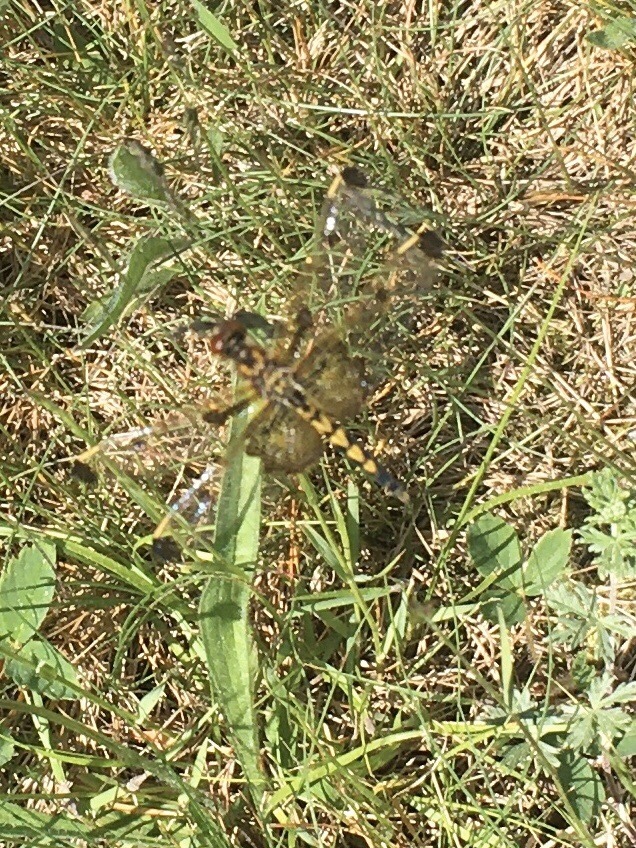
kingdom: Animalia
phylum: Arthropoda
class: Insecta
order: Odonata
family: Libellulidae
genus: Celithemis
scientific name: Celithemis elisa
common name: Calico pennant
